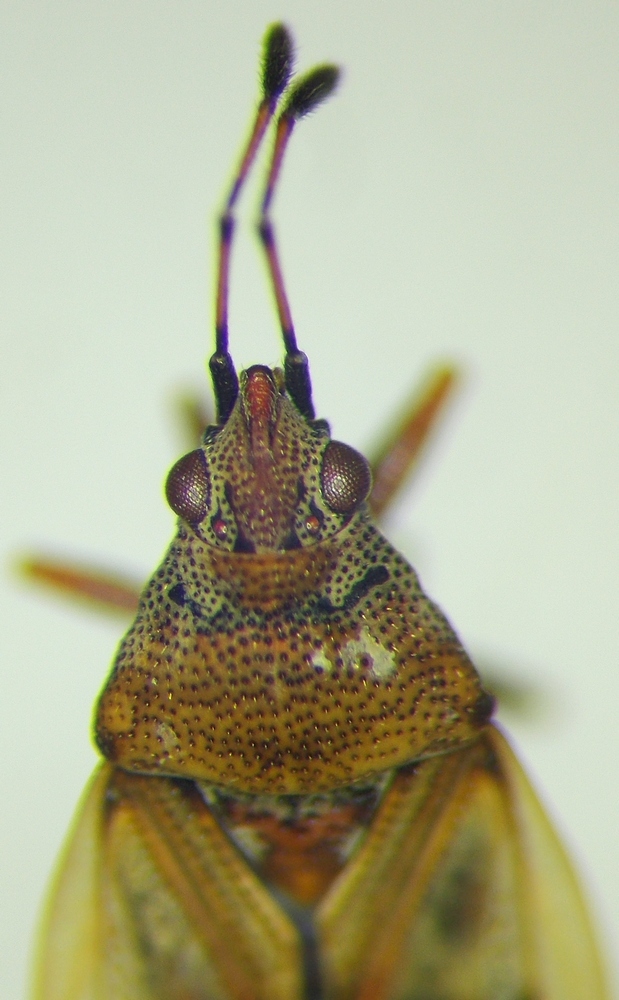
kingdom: Animalia
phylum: Arthropoda
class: Insecta
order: Hemiptera
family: Lygaeidae
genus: Kleidocerys
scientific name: Kleidocerys resedae
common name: Birch catkin bug
